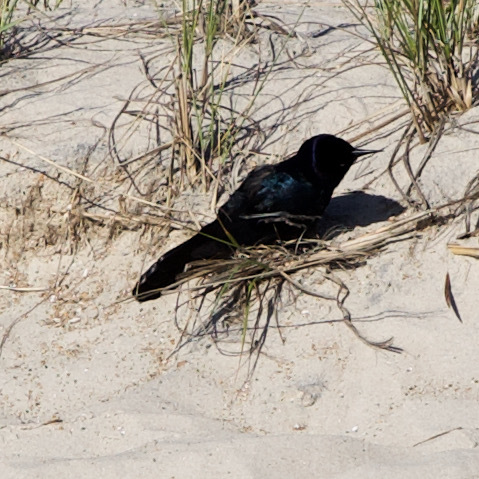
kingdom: Animalia
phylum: Chordata
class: Aves
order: Passeriformes
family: Icteridae
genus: Quiscalus
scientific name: Quiscalus major
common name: Boat-tailed grackle
